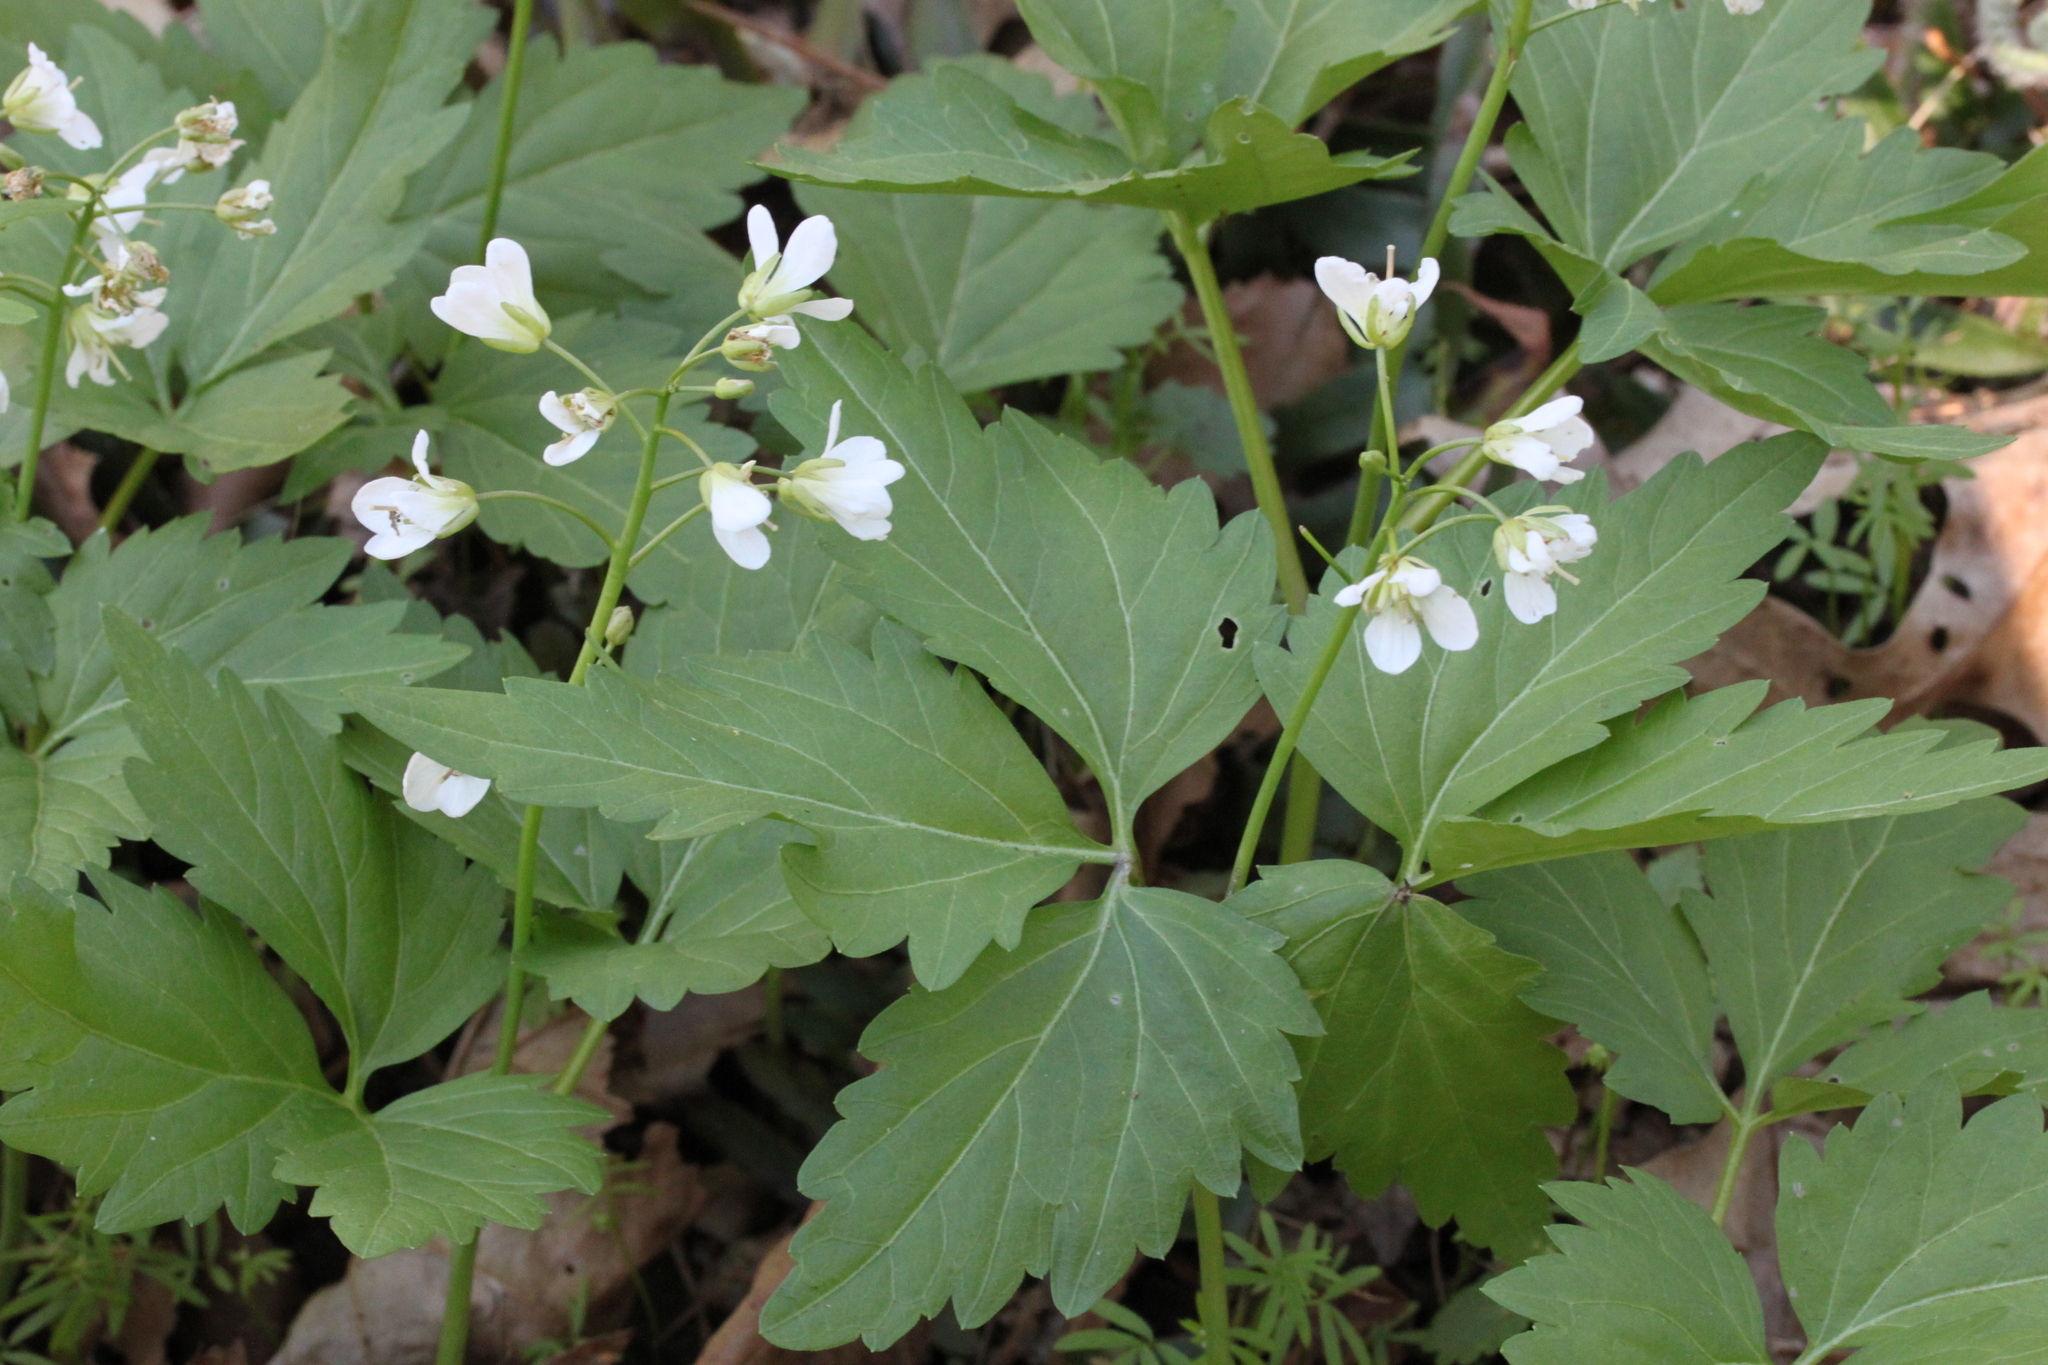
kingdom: Plantae
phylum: Tracheophyta
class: Magnoliopsida
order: Brassicales
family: Brassicaceae
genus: Cardamine
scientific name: Cardamine diphylla
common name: Broad-leaved toothwort
